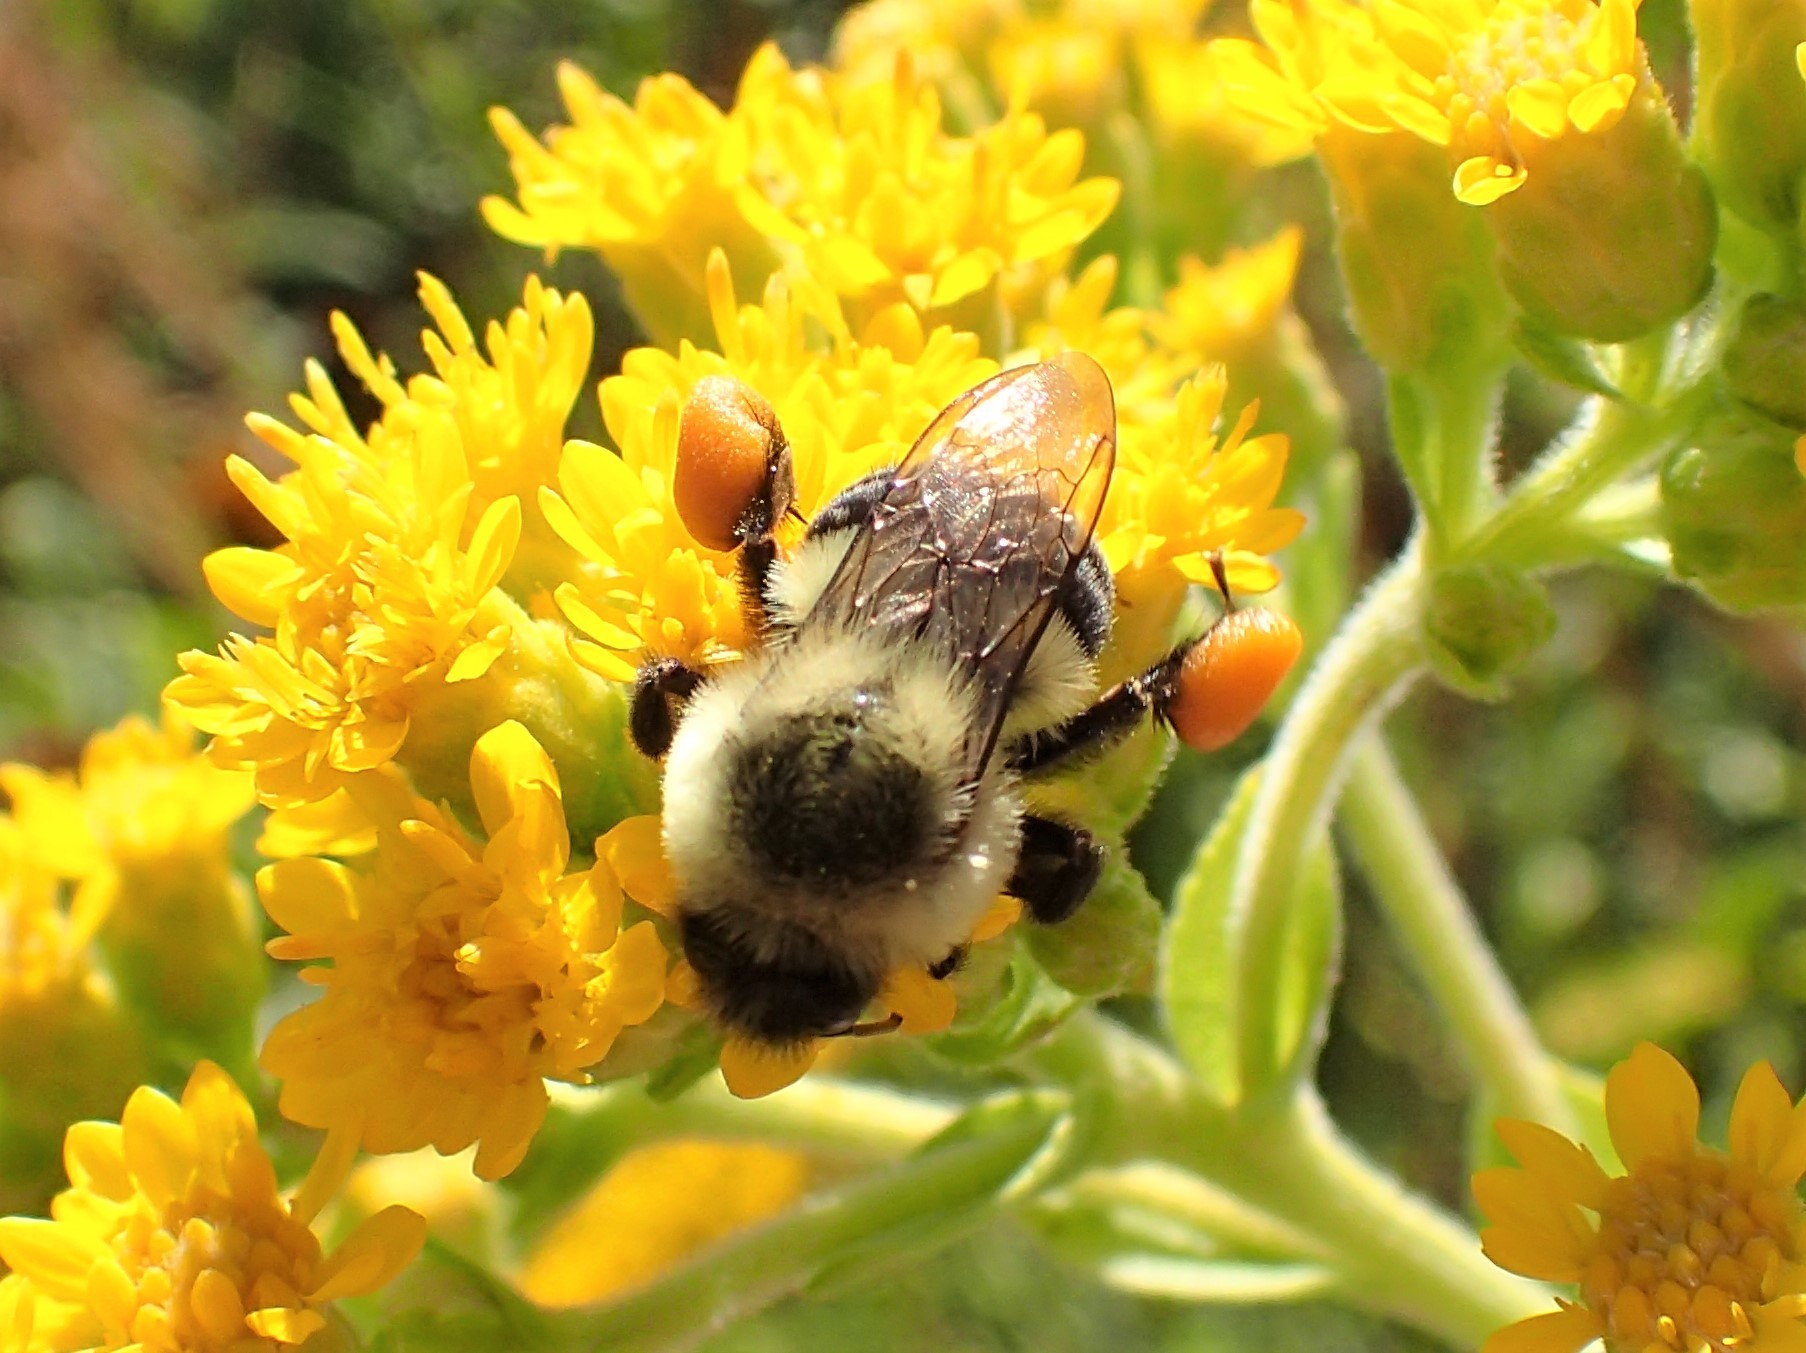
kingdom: Animalia
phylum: Arthropoda
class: Insecta
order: Hymenoptera
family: Apidae
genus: Bombus
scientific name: Bombus impatiens
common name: Common eastern bumble bee
